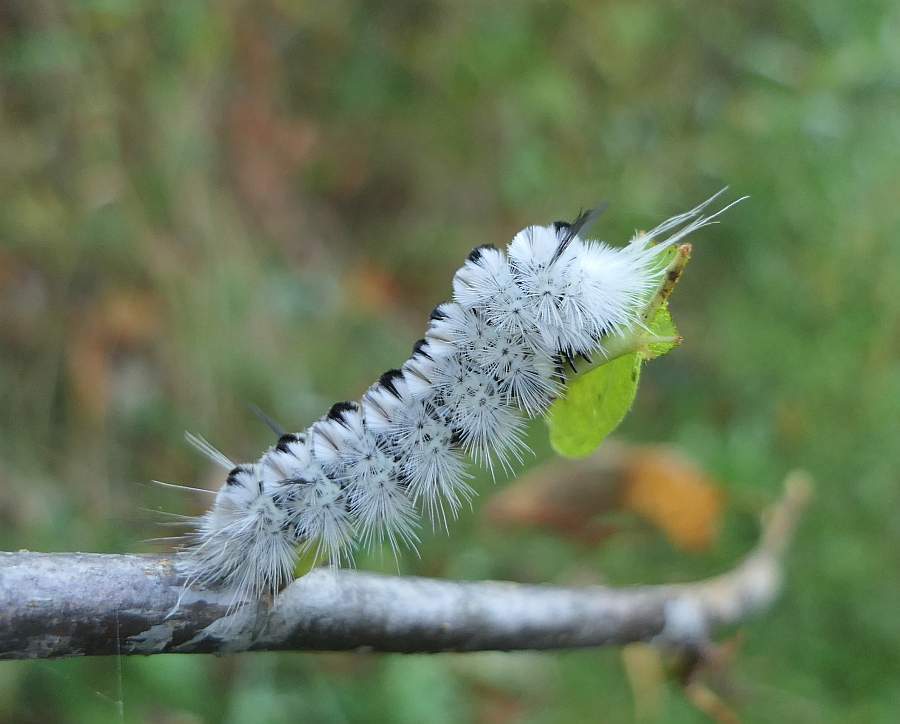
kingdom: Animalia
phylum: Arthropoda
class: Insecta
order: Lepidoptera
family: Erebidae
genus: Lophocampa
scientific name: Lophocampa caryae
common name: Hickory tussock moth
